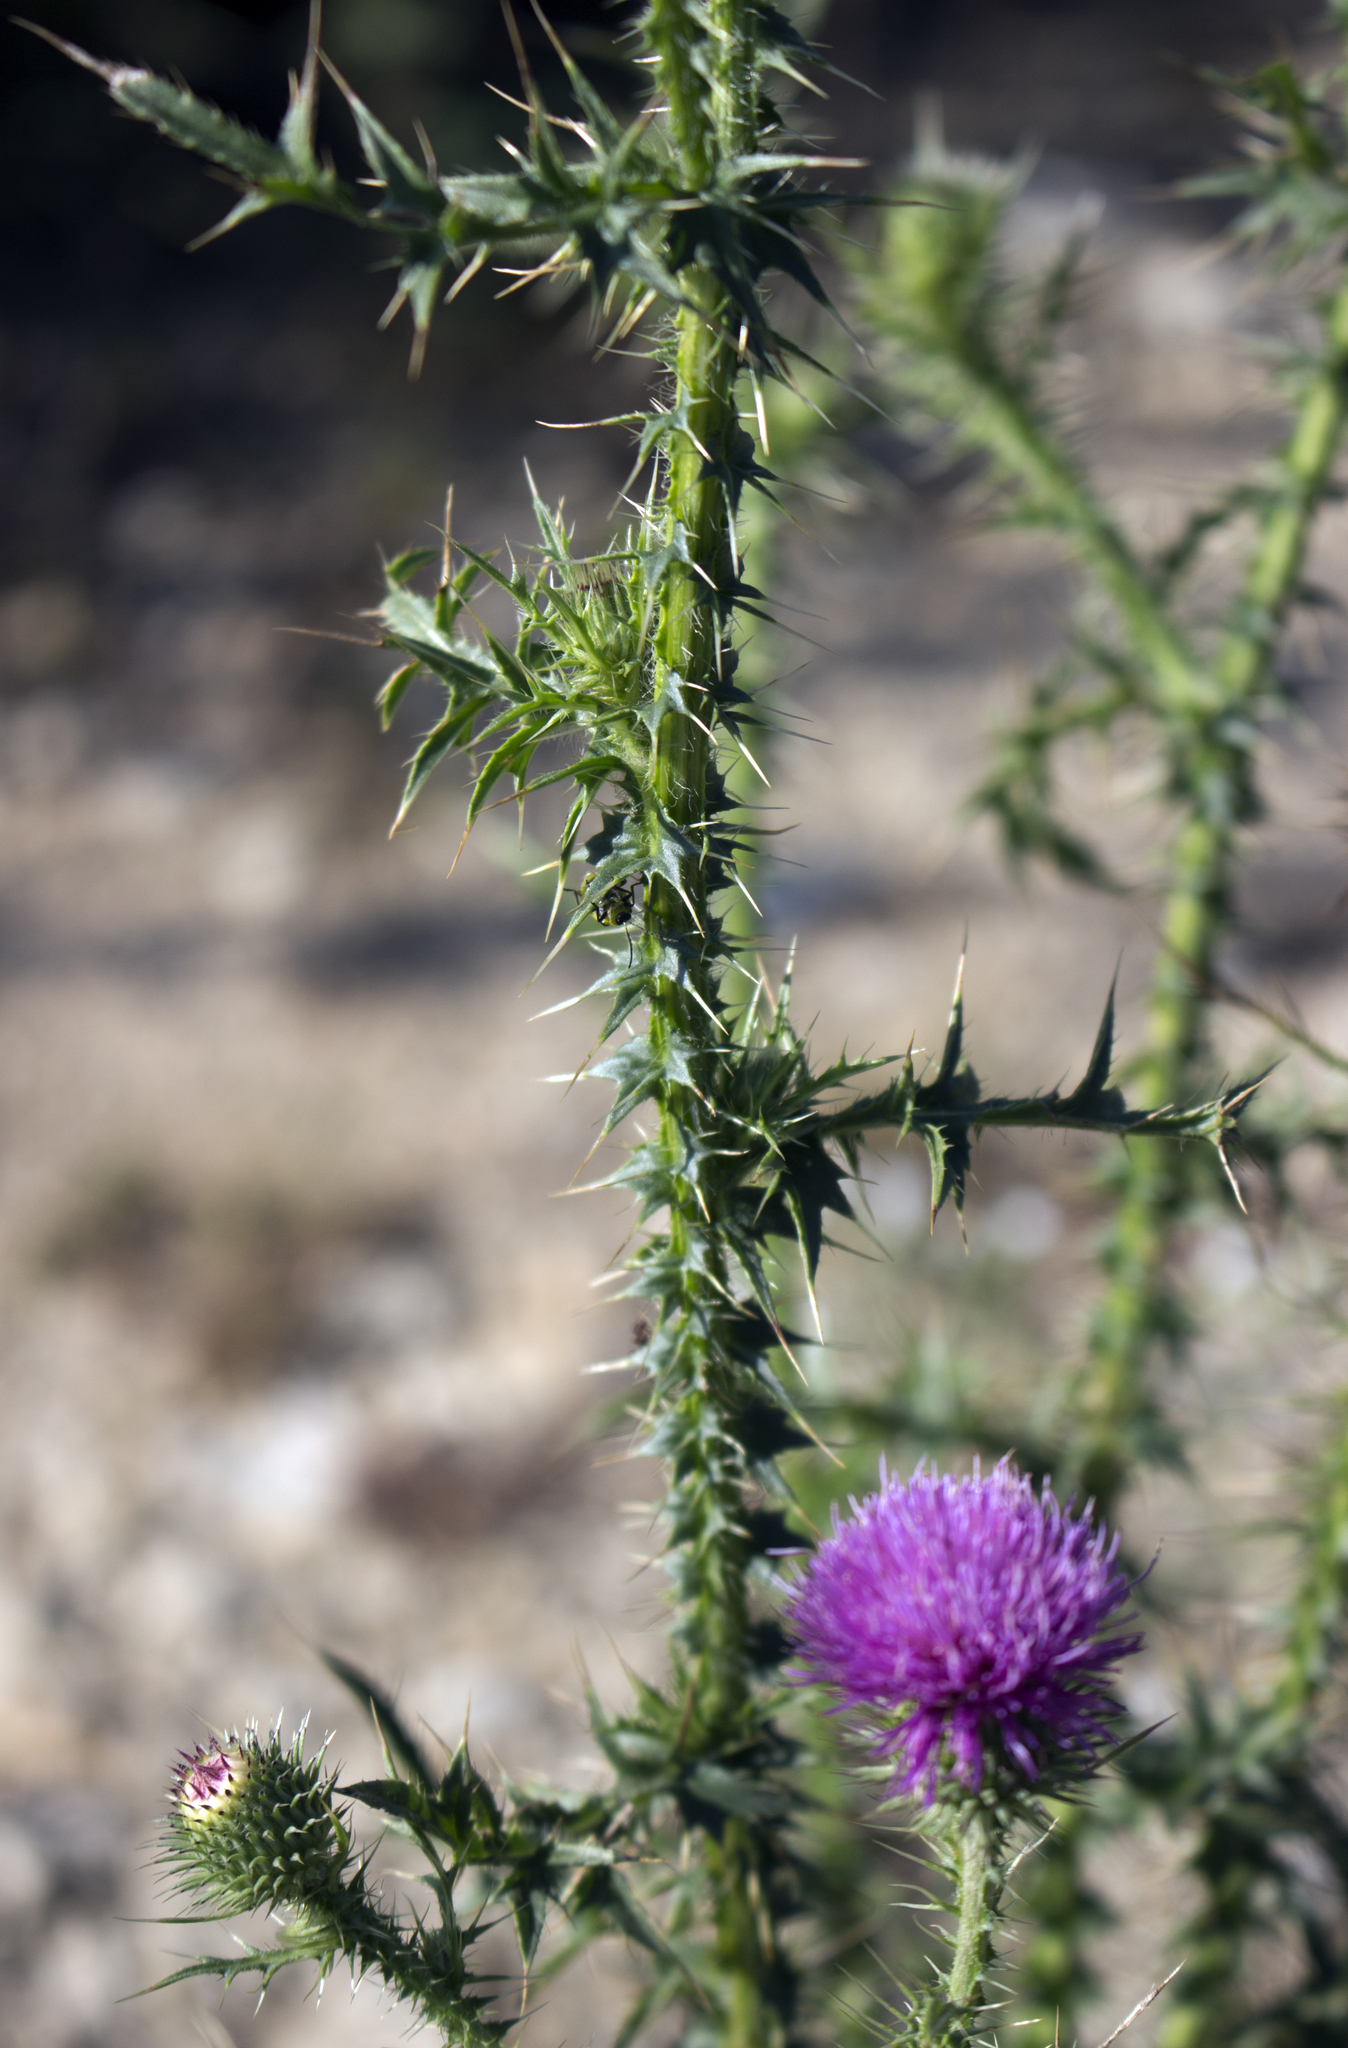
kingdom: Plantae
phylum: Tracheophyta
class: Magnoliopsida
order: Asterales
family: Asteraceae
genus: Carduus
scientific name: Carduus acanthoides
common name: Plumeless thistle
